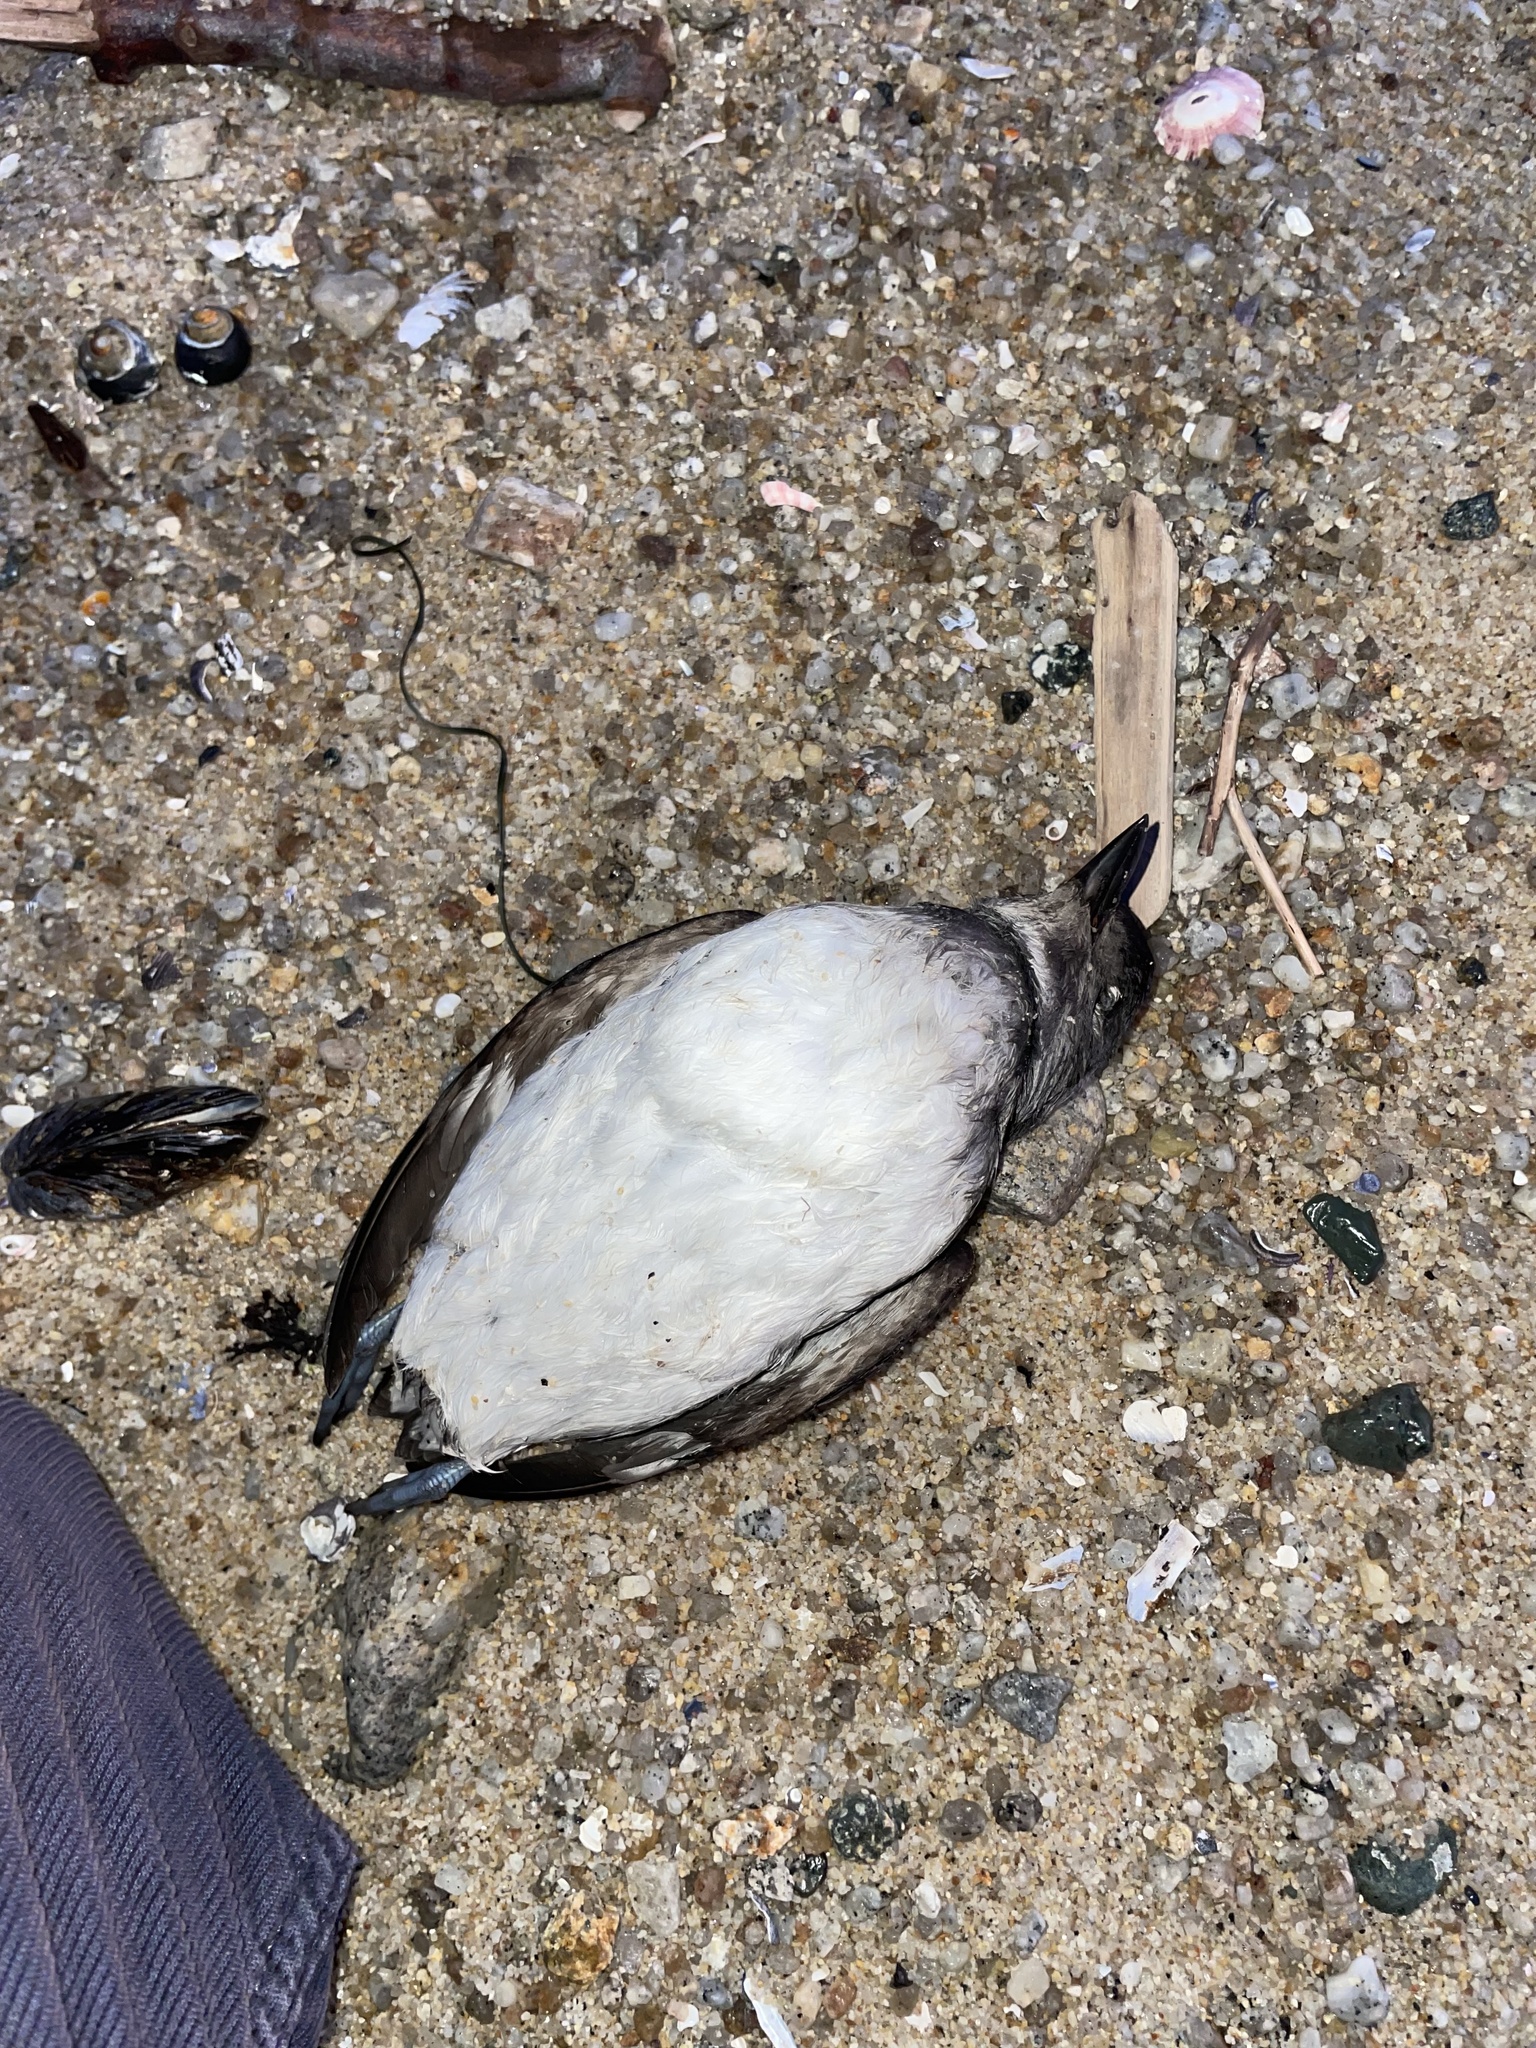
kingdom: Animalia
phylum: Chordata
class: Aves
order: Charadriiformes
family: Alcidae
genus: Ptychoramphus
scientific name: Ptychoramphus aleuticus
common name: Cassin's auklet
